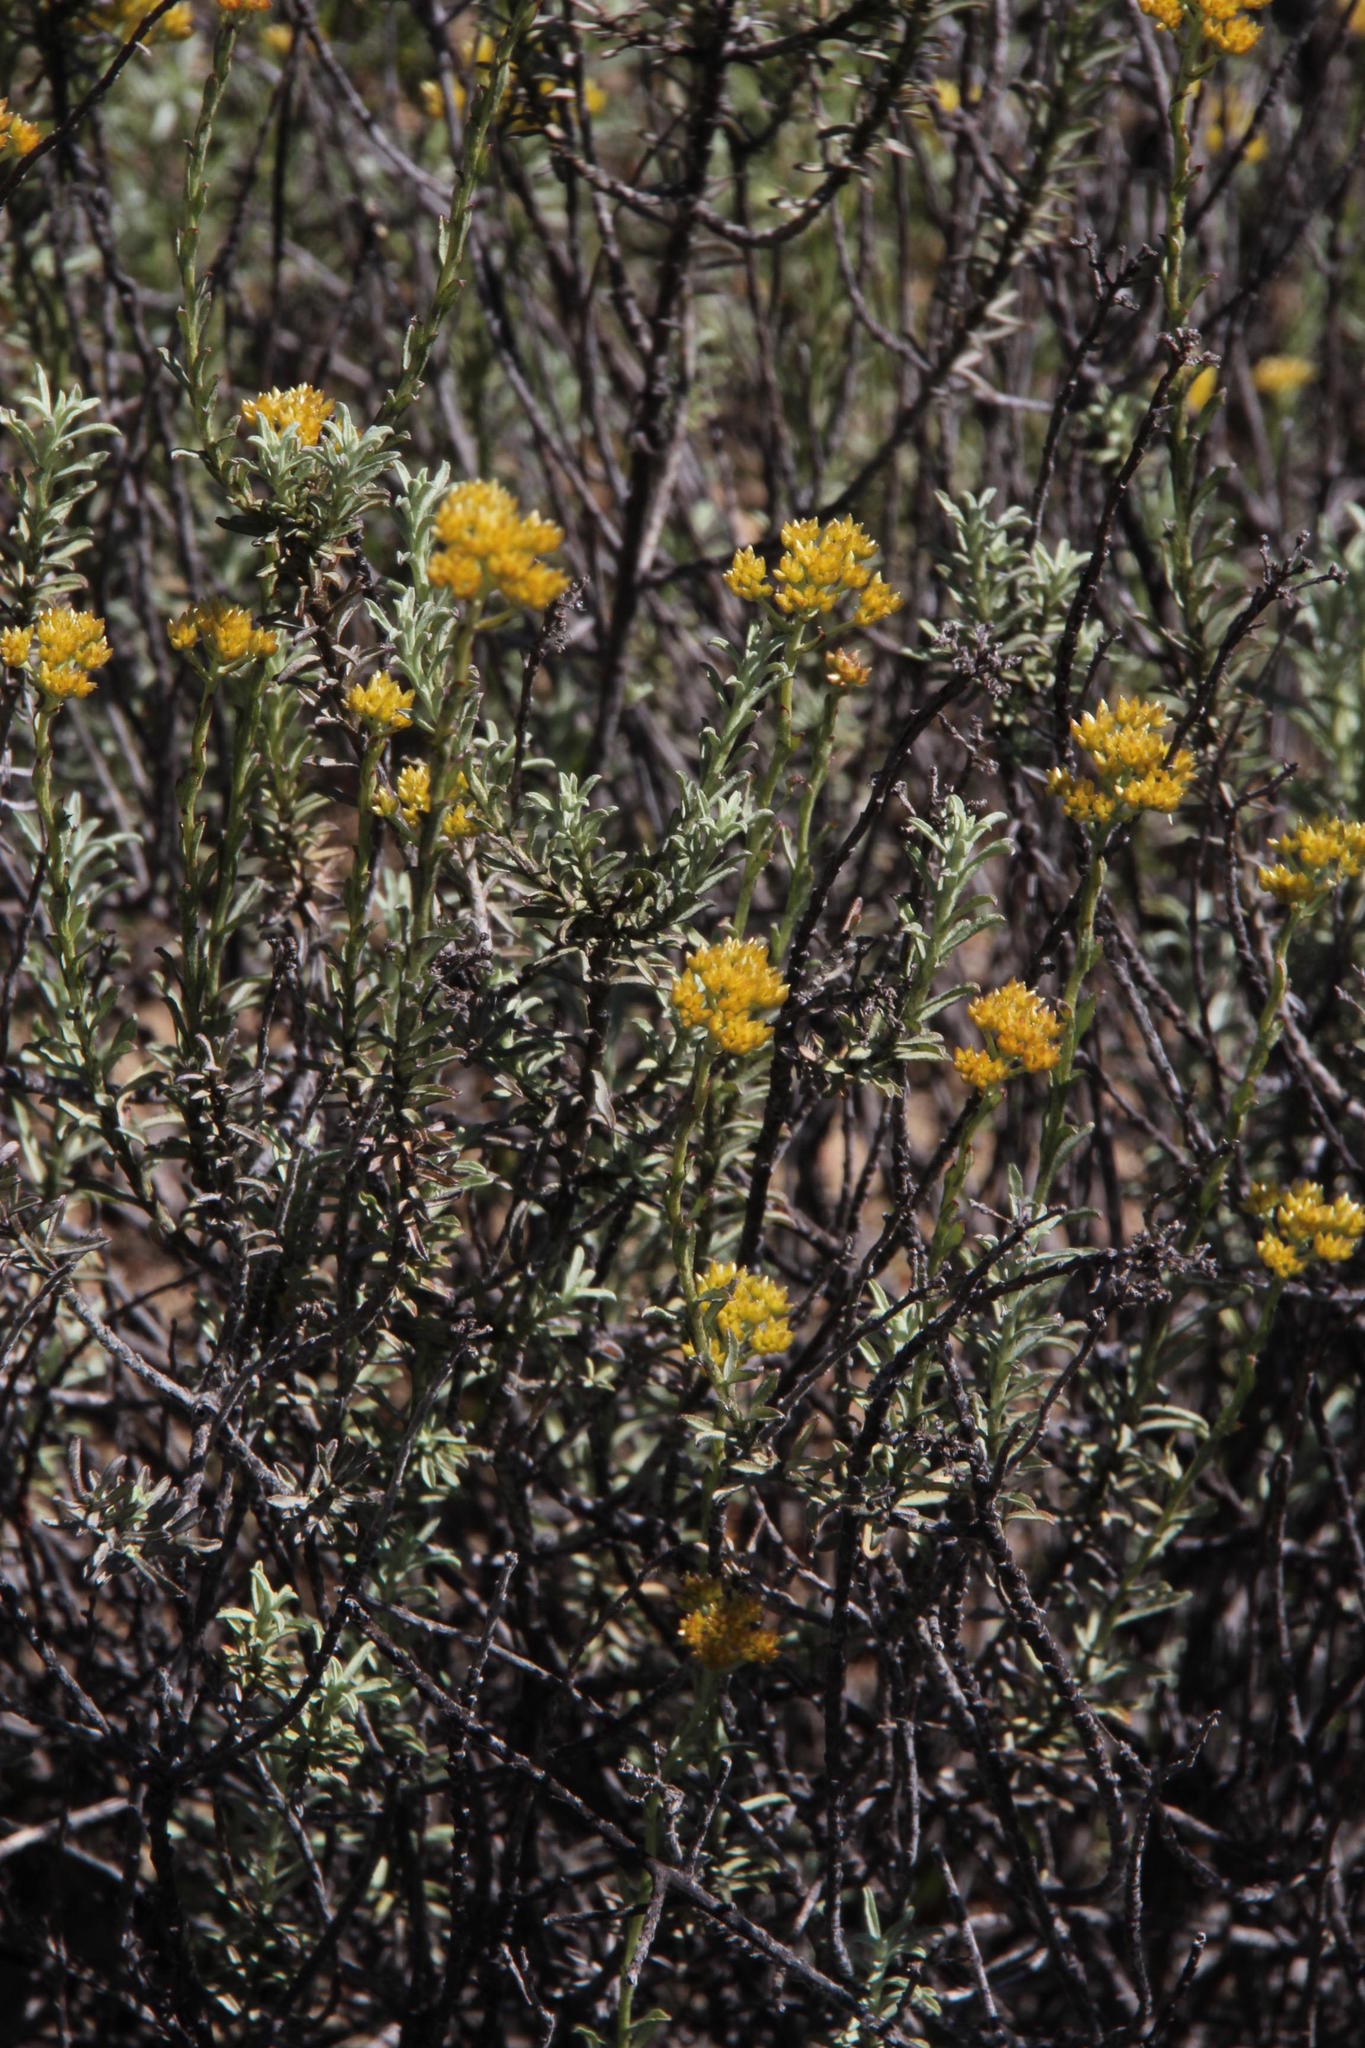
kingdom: Plantae
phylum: Tracheophyta
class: Magnoliopsida
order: Asterales
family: Asteraceae
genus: Helichrysum
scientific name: Helichrysum rutilans
